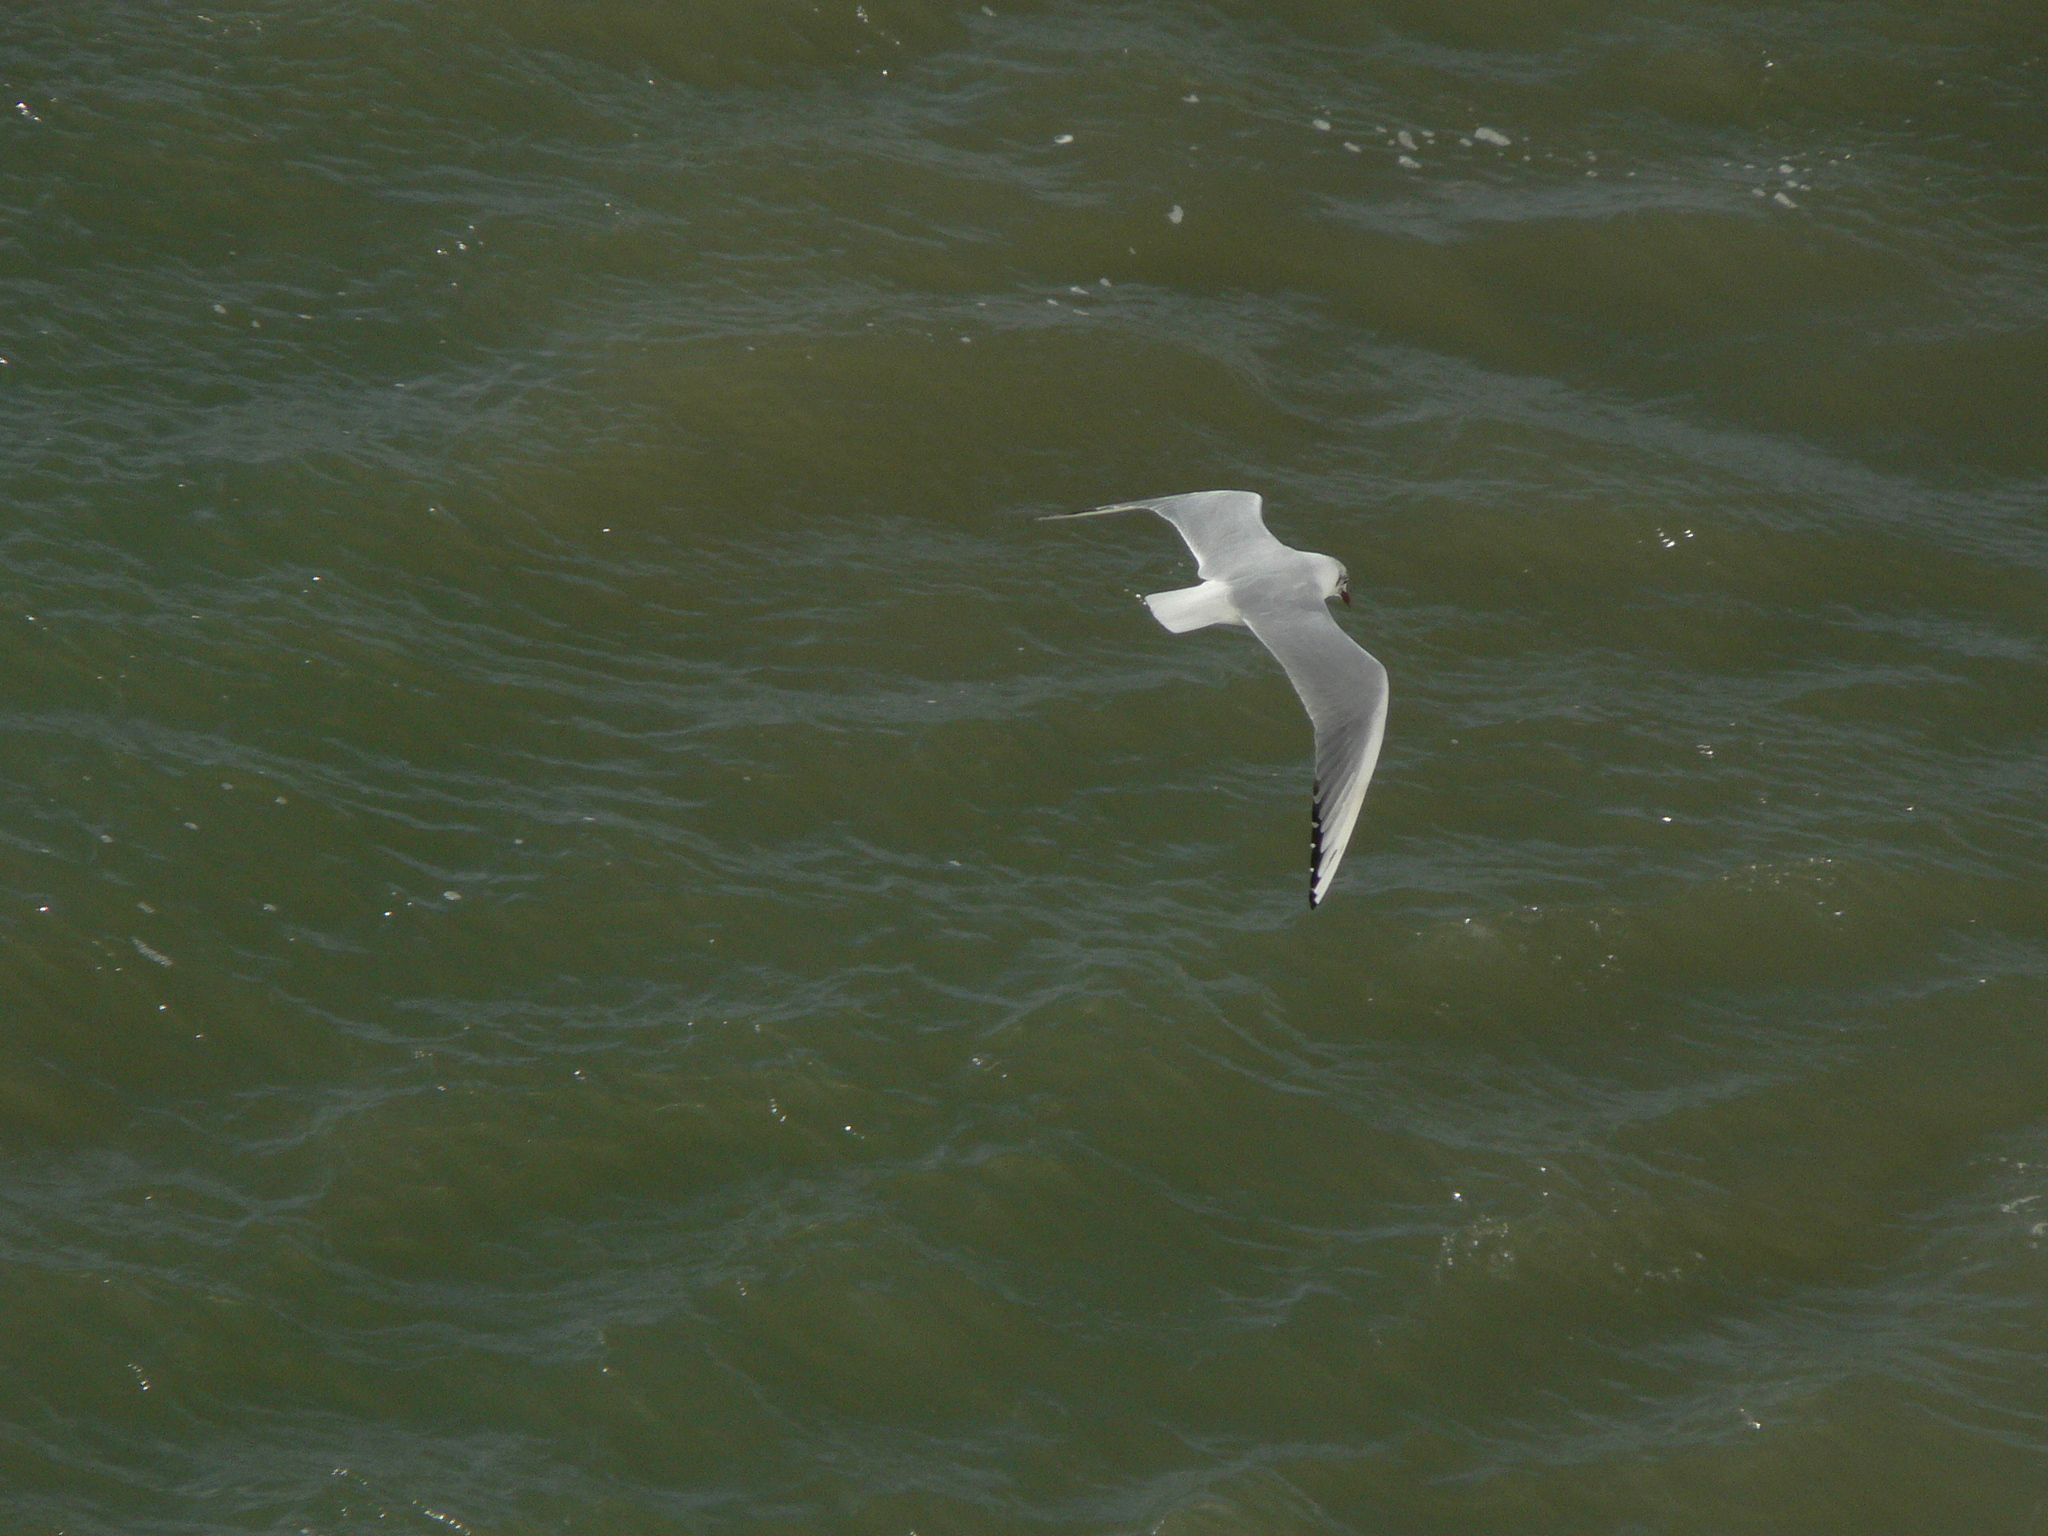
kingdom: Animalia
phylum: Chordata
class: Aves
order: Charadriiformes
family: Laridae
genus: Chroicocephalus
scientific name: Chroicocephalus ridibundus
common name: Black-headed gull
